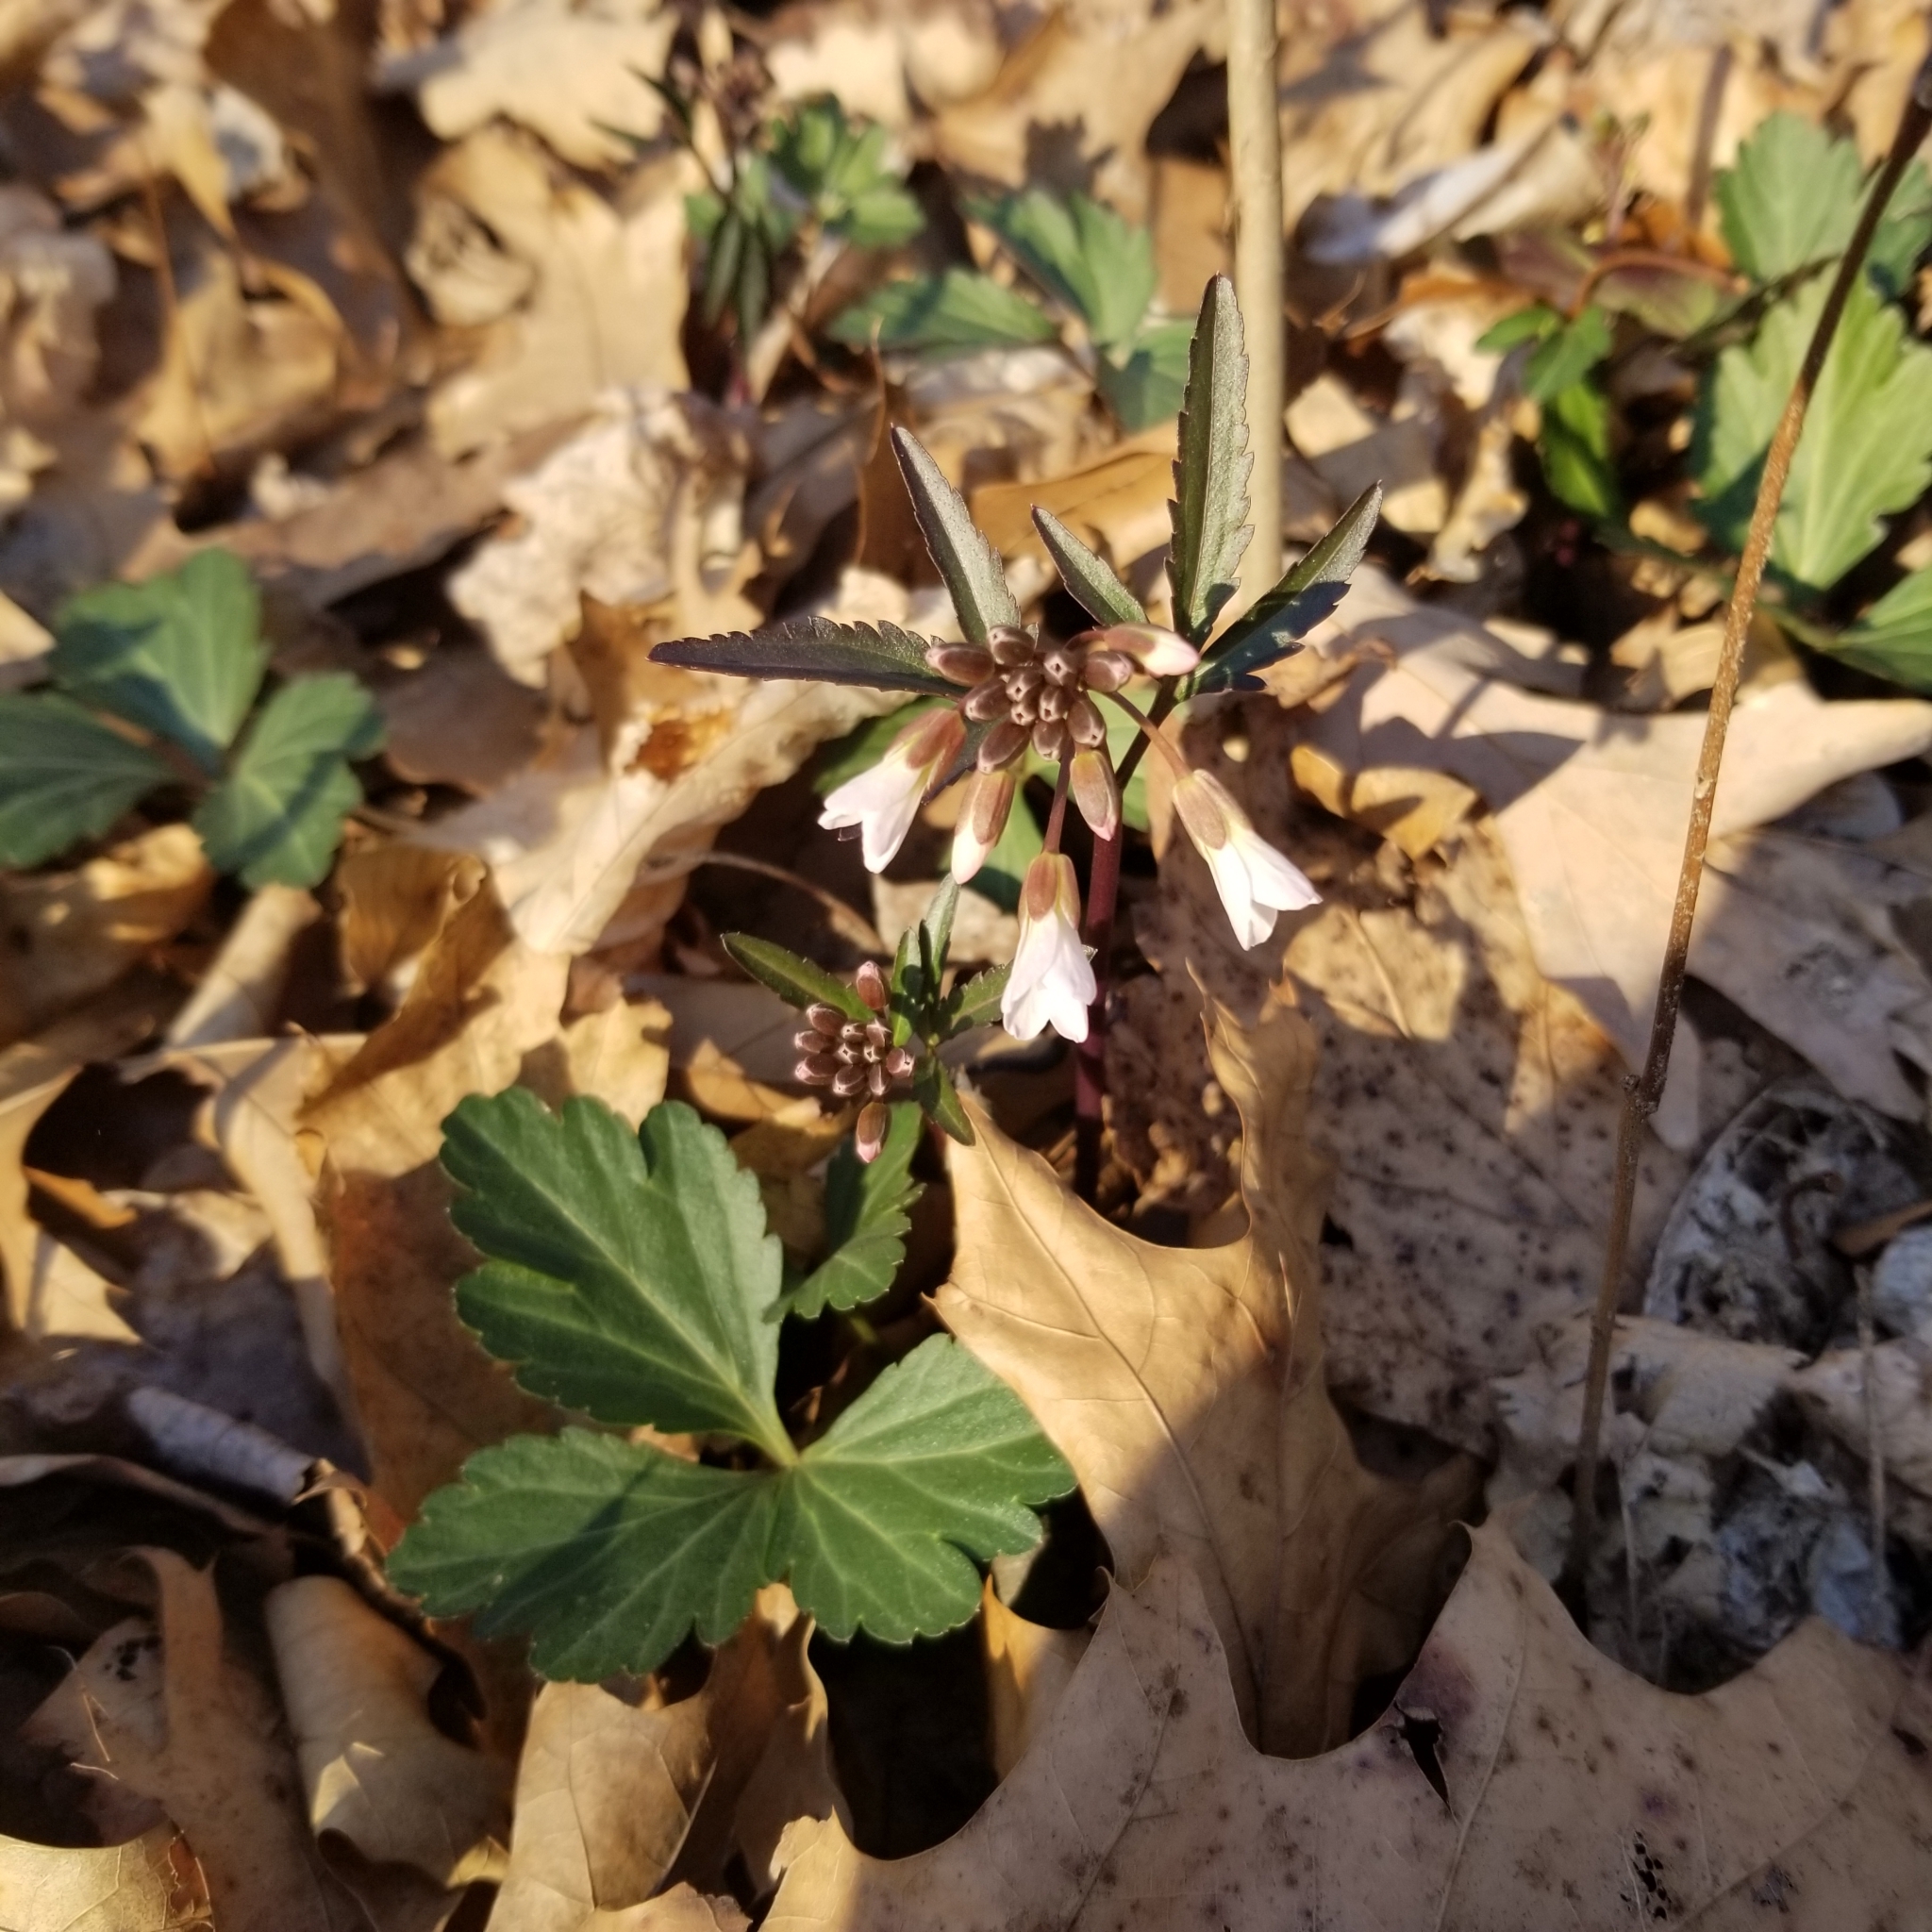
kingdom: Plantae
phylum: Tracheophyta
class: Magnoliopsida
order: Brassicales
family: Brassicaceae
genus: Cardamine
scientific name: Cardamine angustata
